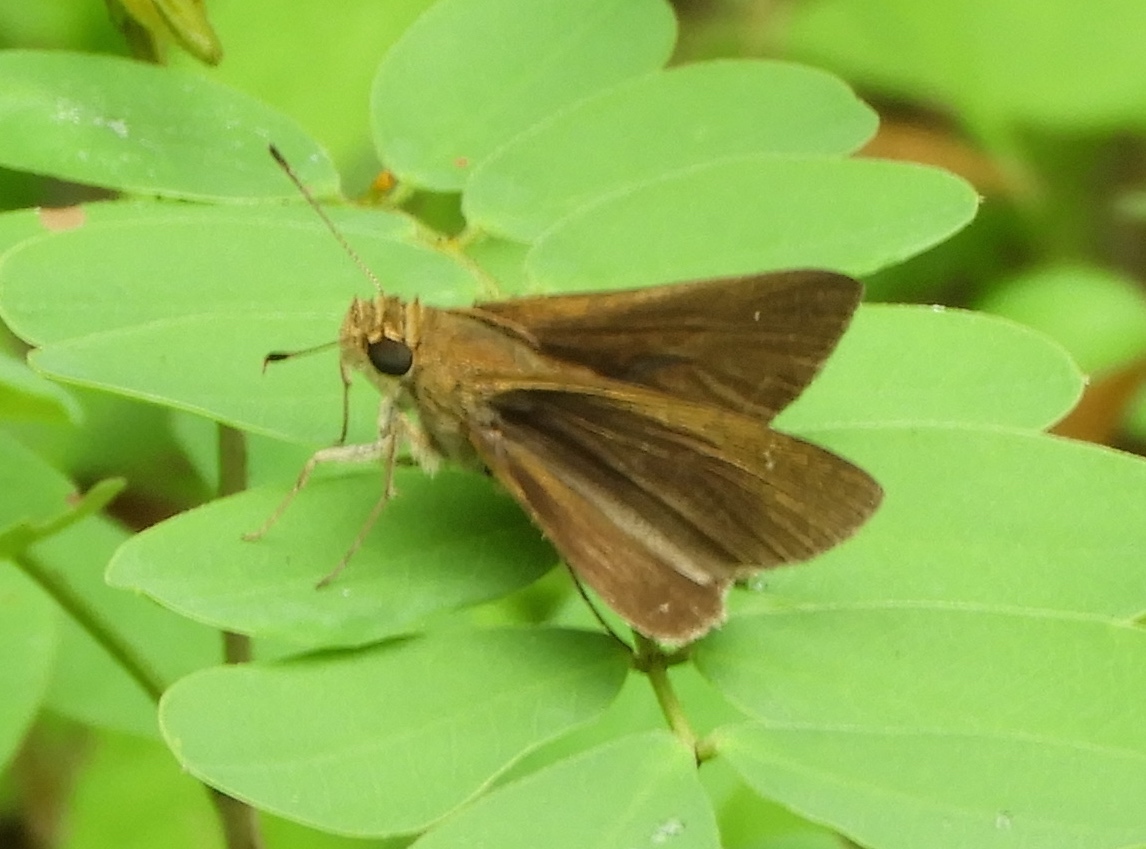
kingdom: Animalia
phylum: Arthropoda
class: Insecta
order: Lepidoptera
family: Hesperiidae
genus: Lerema
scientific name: Lerema
